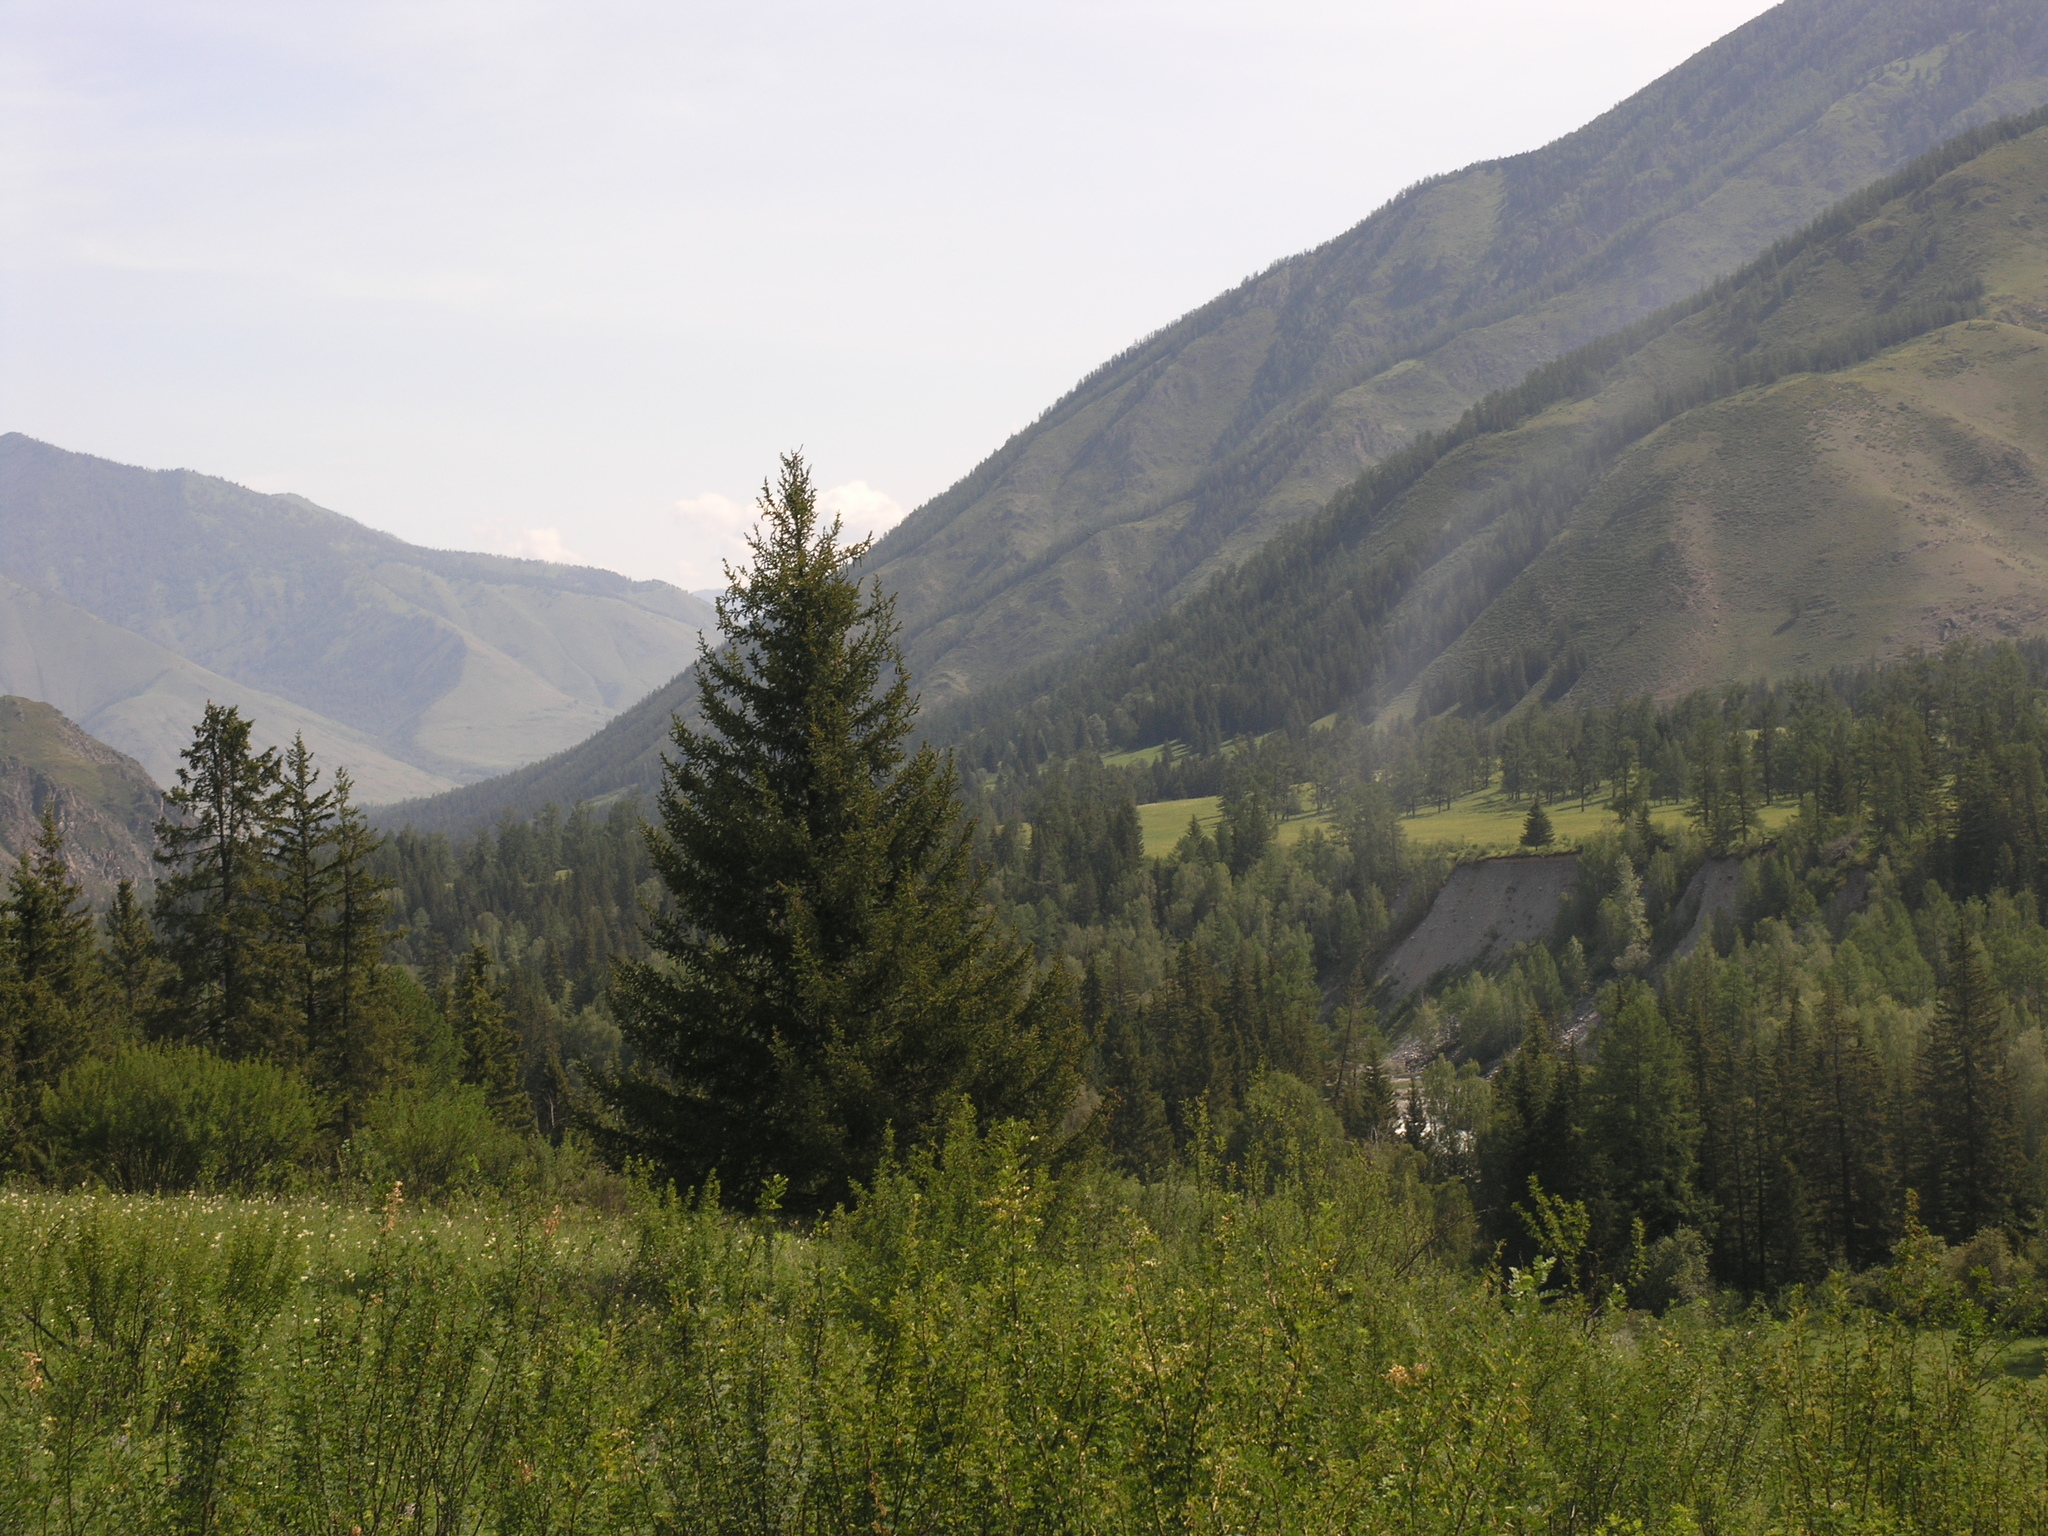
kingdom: Plantae
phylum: Tracheophyta
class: Pinopsida
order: Pinales
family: Pinaceae
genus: Picea
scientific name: Picea obovata
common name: Siberian spruce
